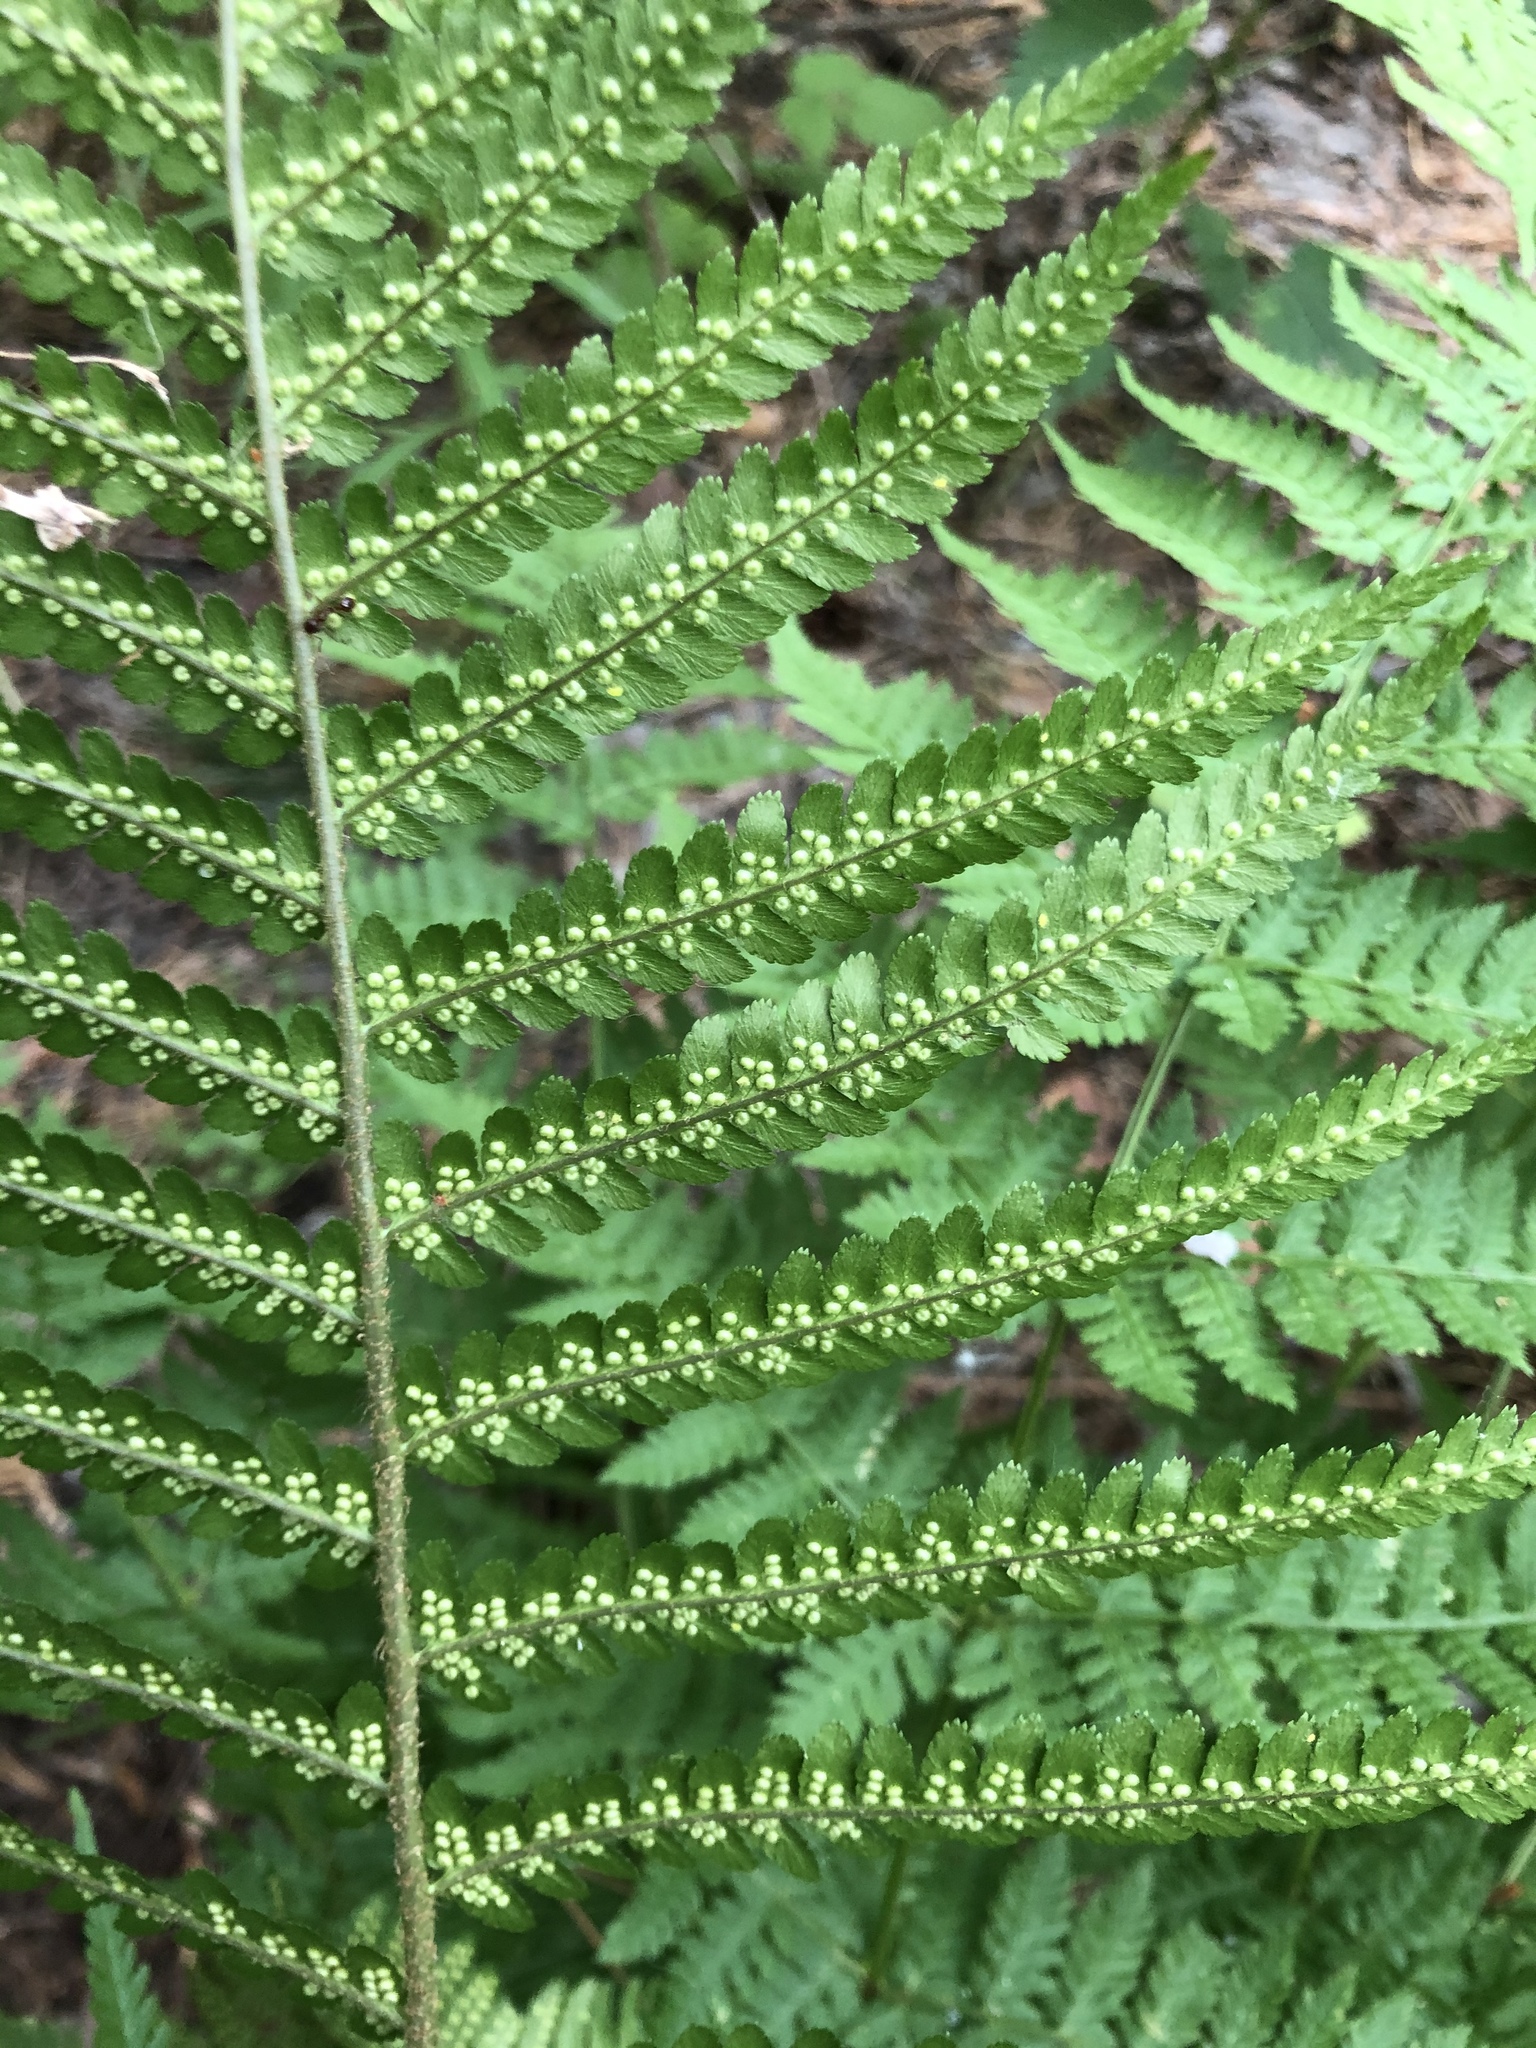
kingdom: Plantae
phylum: Tracheophyta
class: Polypodiopsida
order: Polypodiales
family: Dryopteridaceae
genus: Dryopteris
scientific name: Dryopteris filix-mas
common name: Male fern
